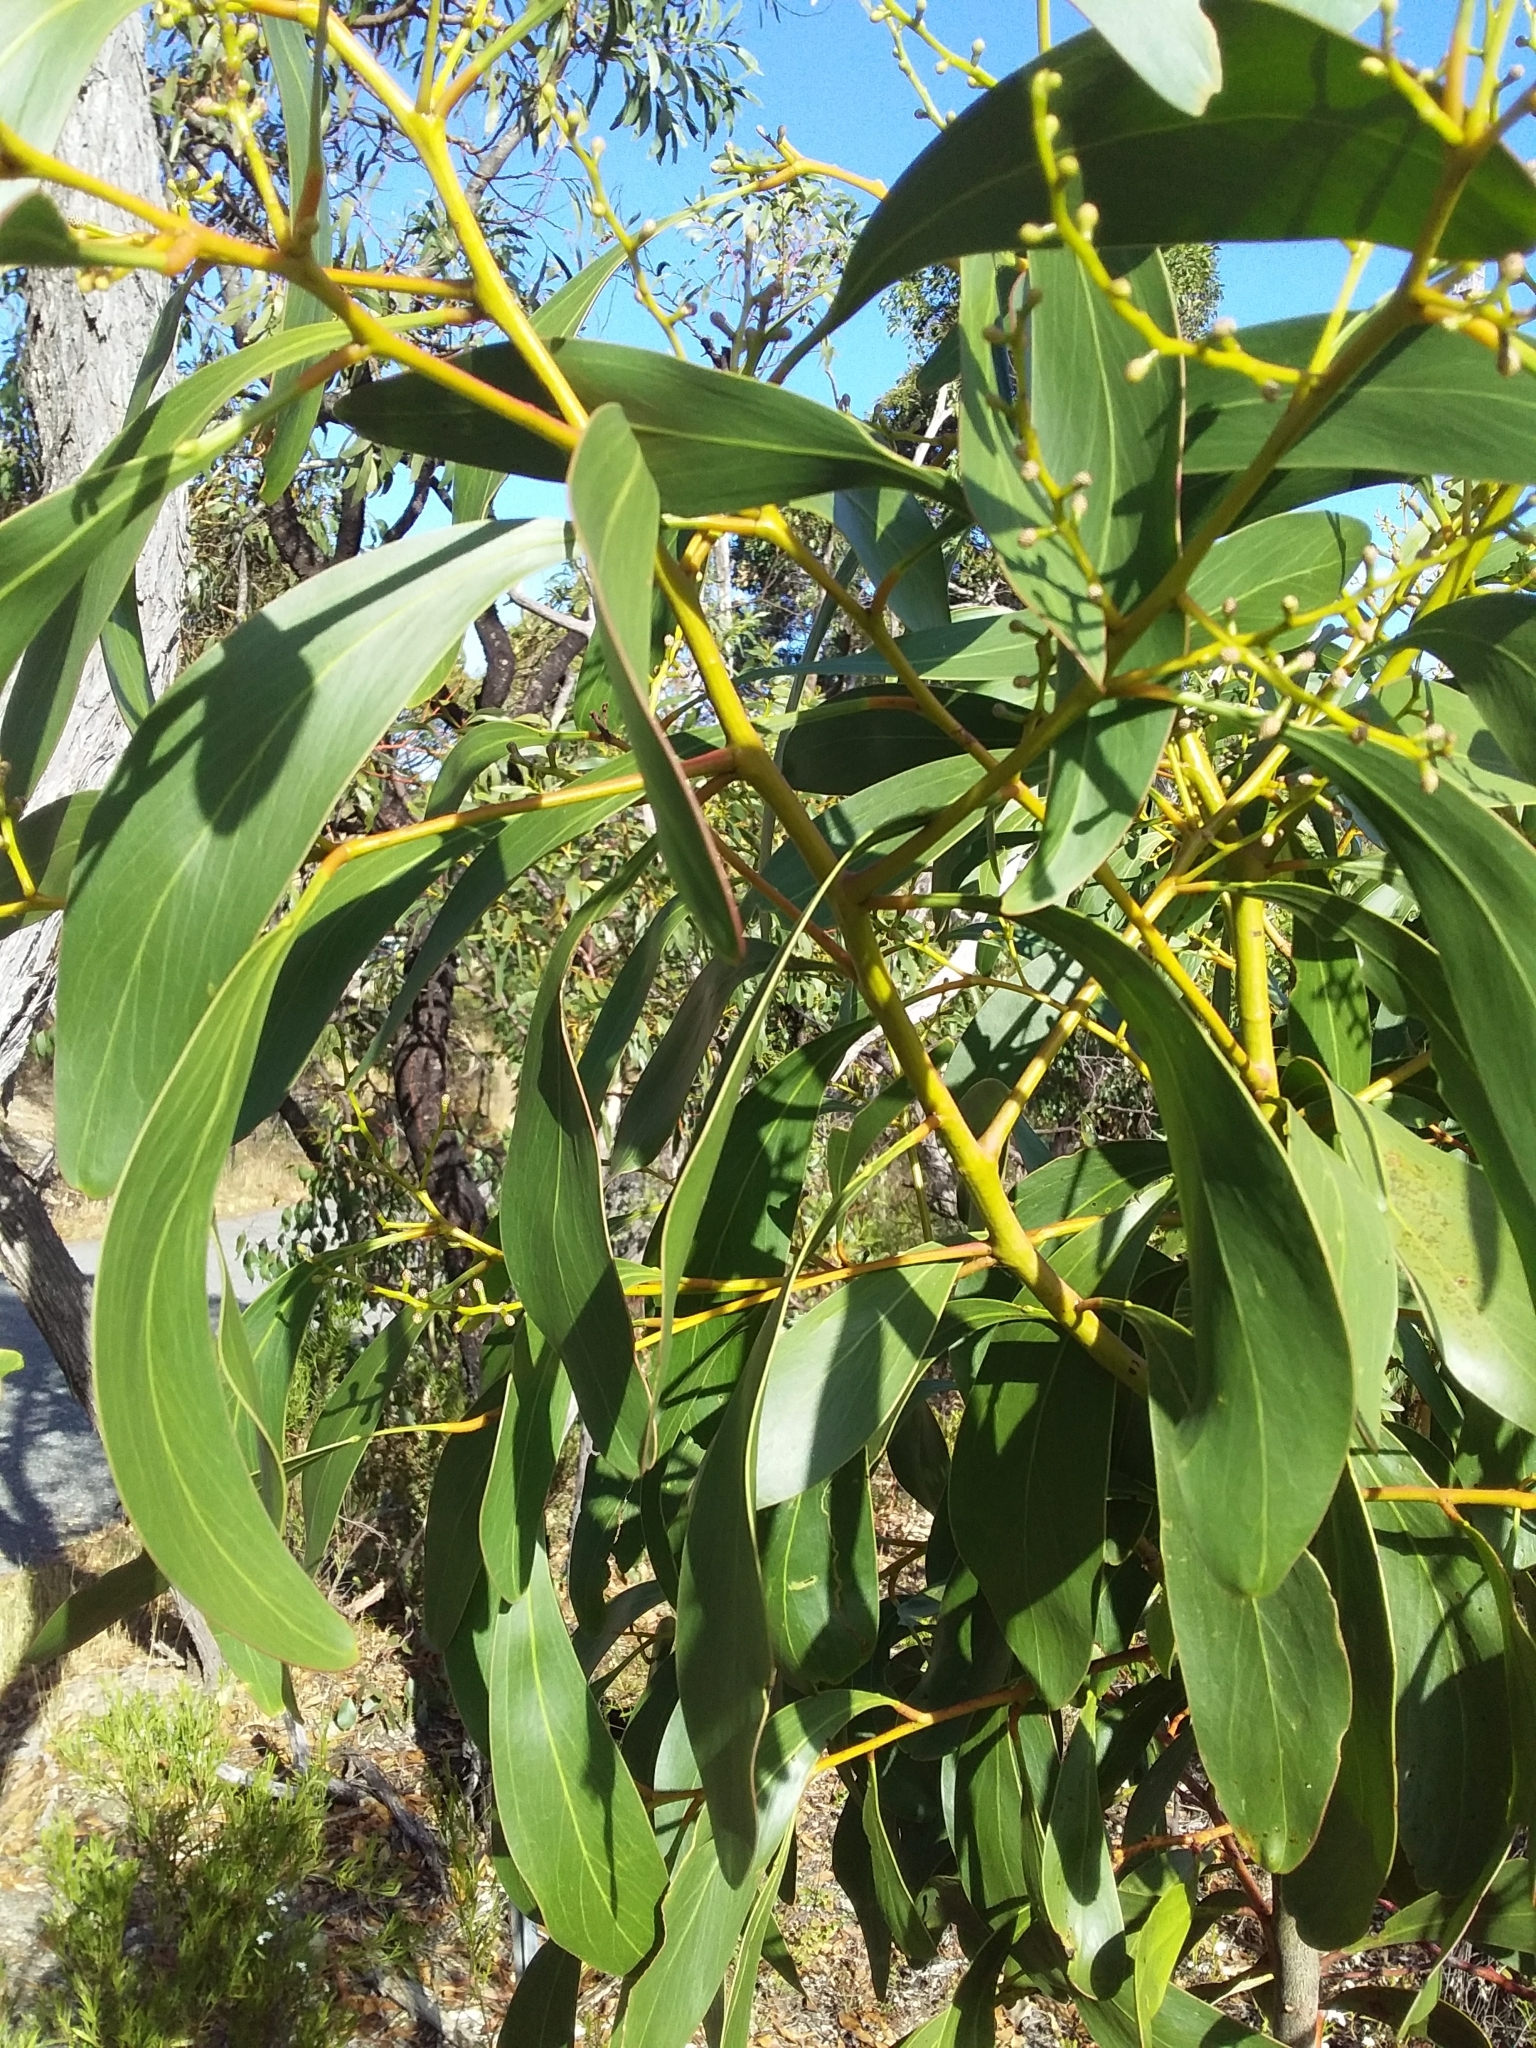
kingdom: Plantae
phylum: Tracheophyta
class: Magnoliopsida
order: Fabales
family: Fabaceae
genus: Acacia
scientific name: Acacia pycnantha
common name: Golden wattle
